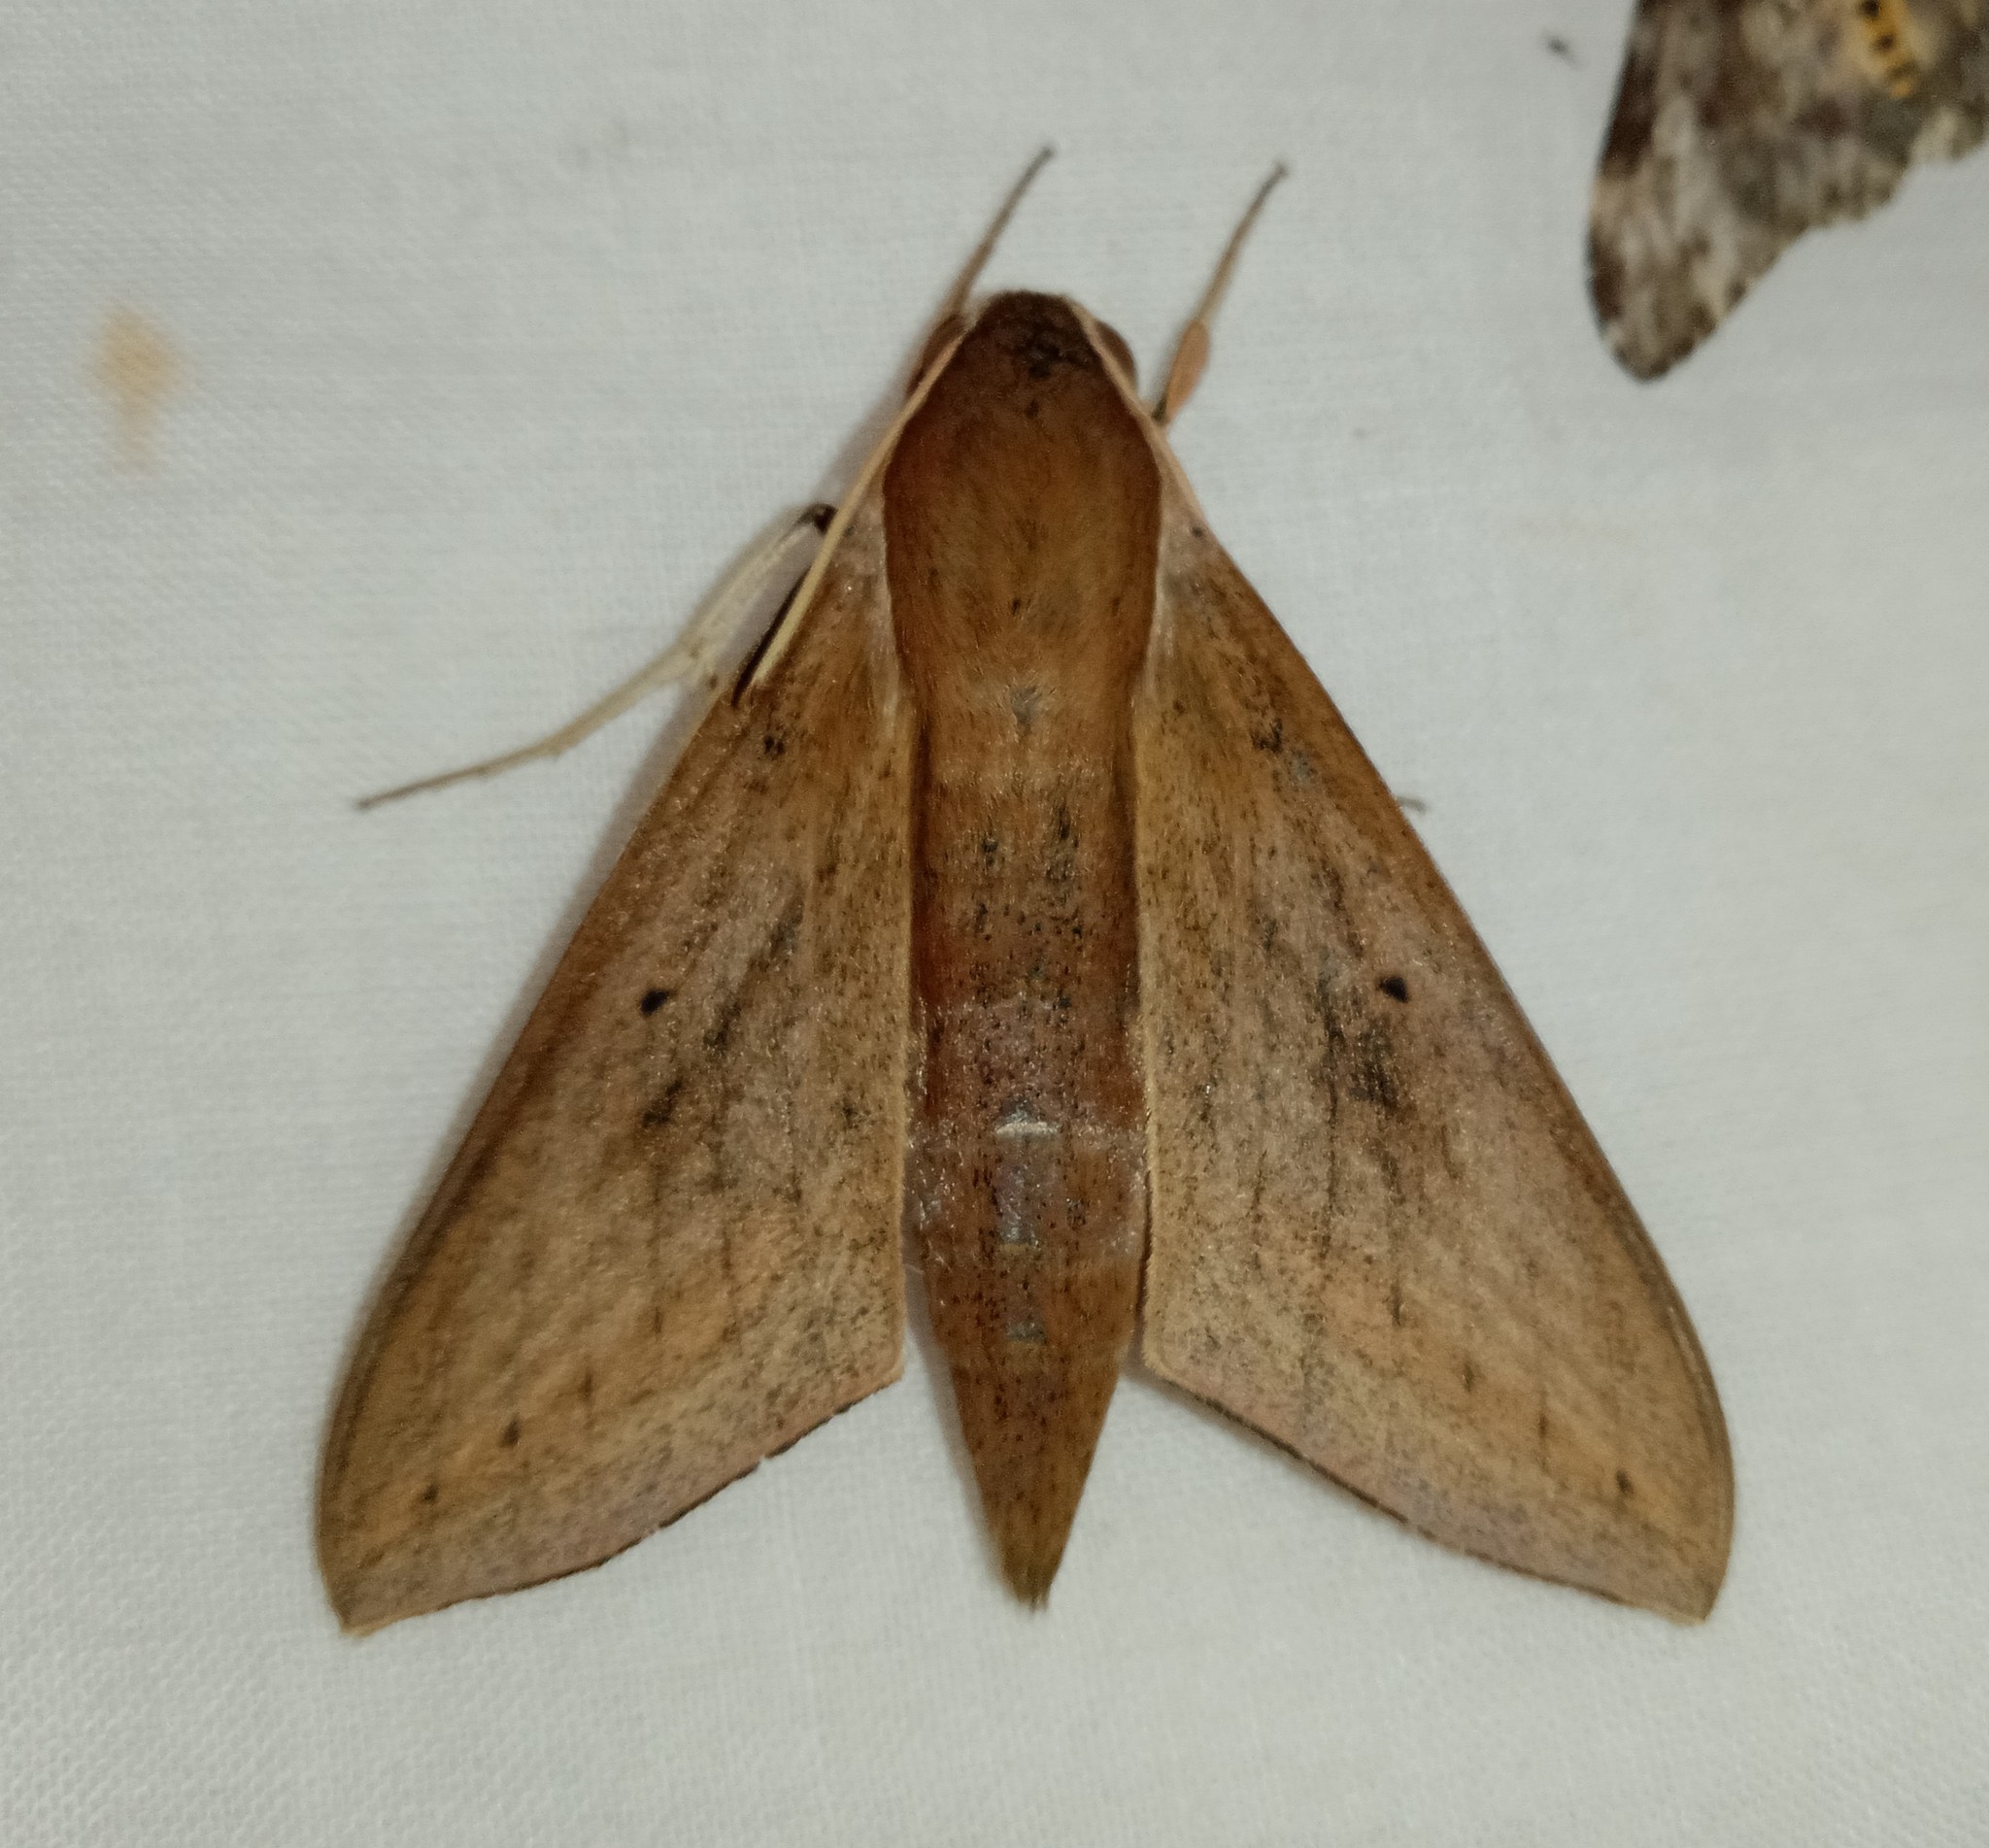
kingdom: Animalia
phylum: Arthropoda
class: Insecta
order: Lepidoptera
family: Sphingidae
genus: Theretra
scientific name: Theretra rhesus
